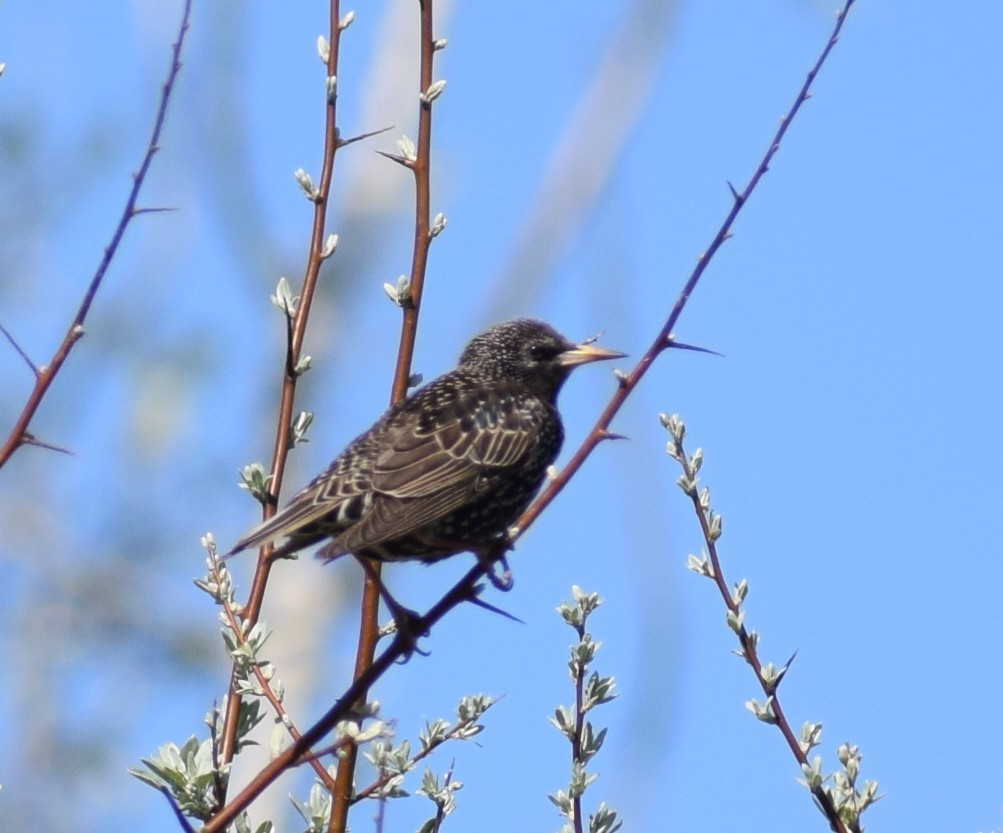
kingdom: Animalia
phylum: Chordata
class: Aves
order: Passeriformes
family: Sturnidae
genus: Sturnus
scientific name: Sturnus vulgaris
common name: Common starling
